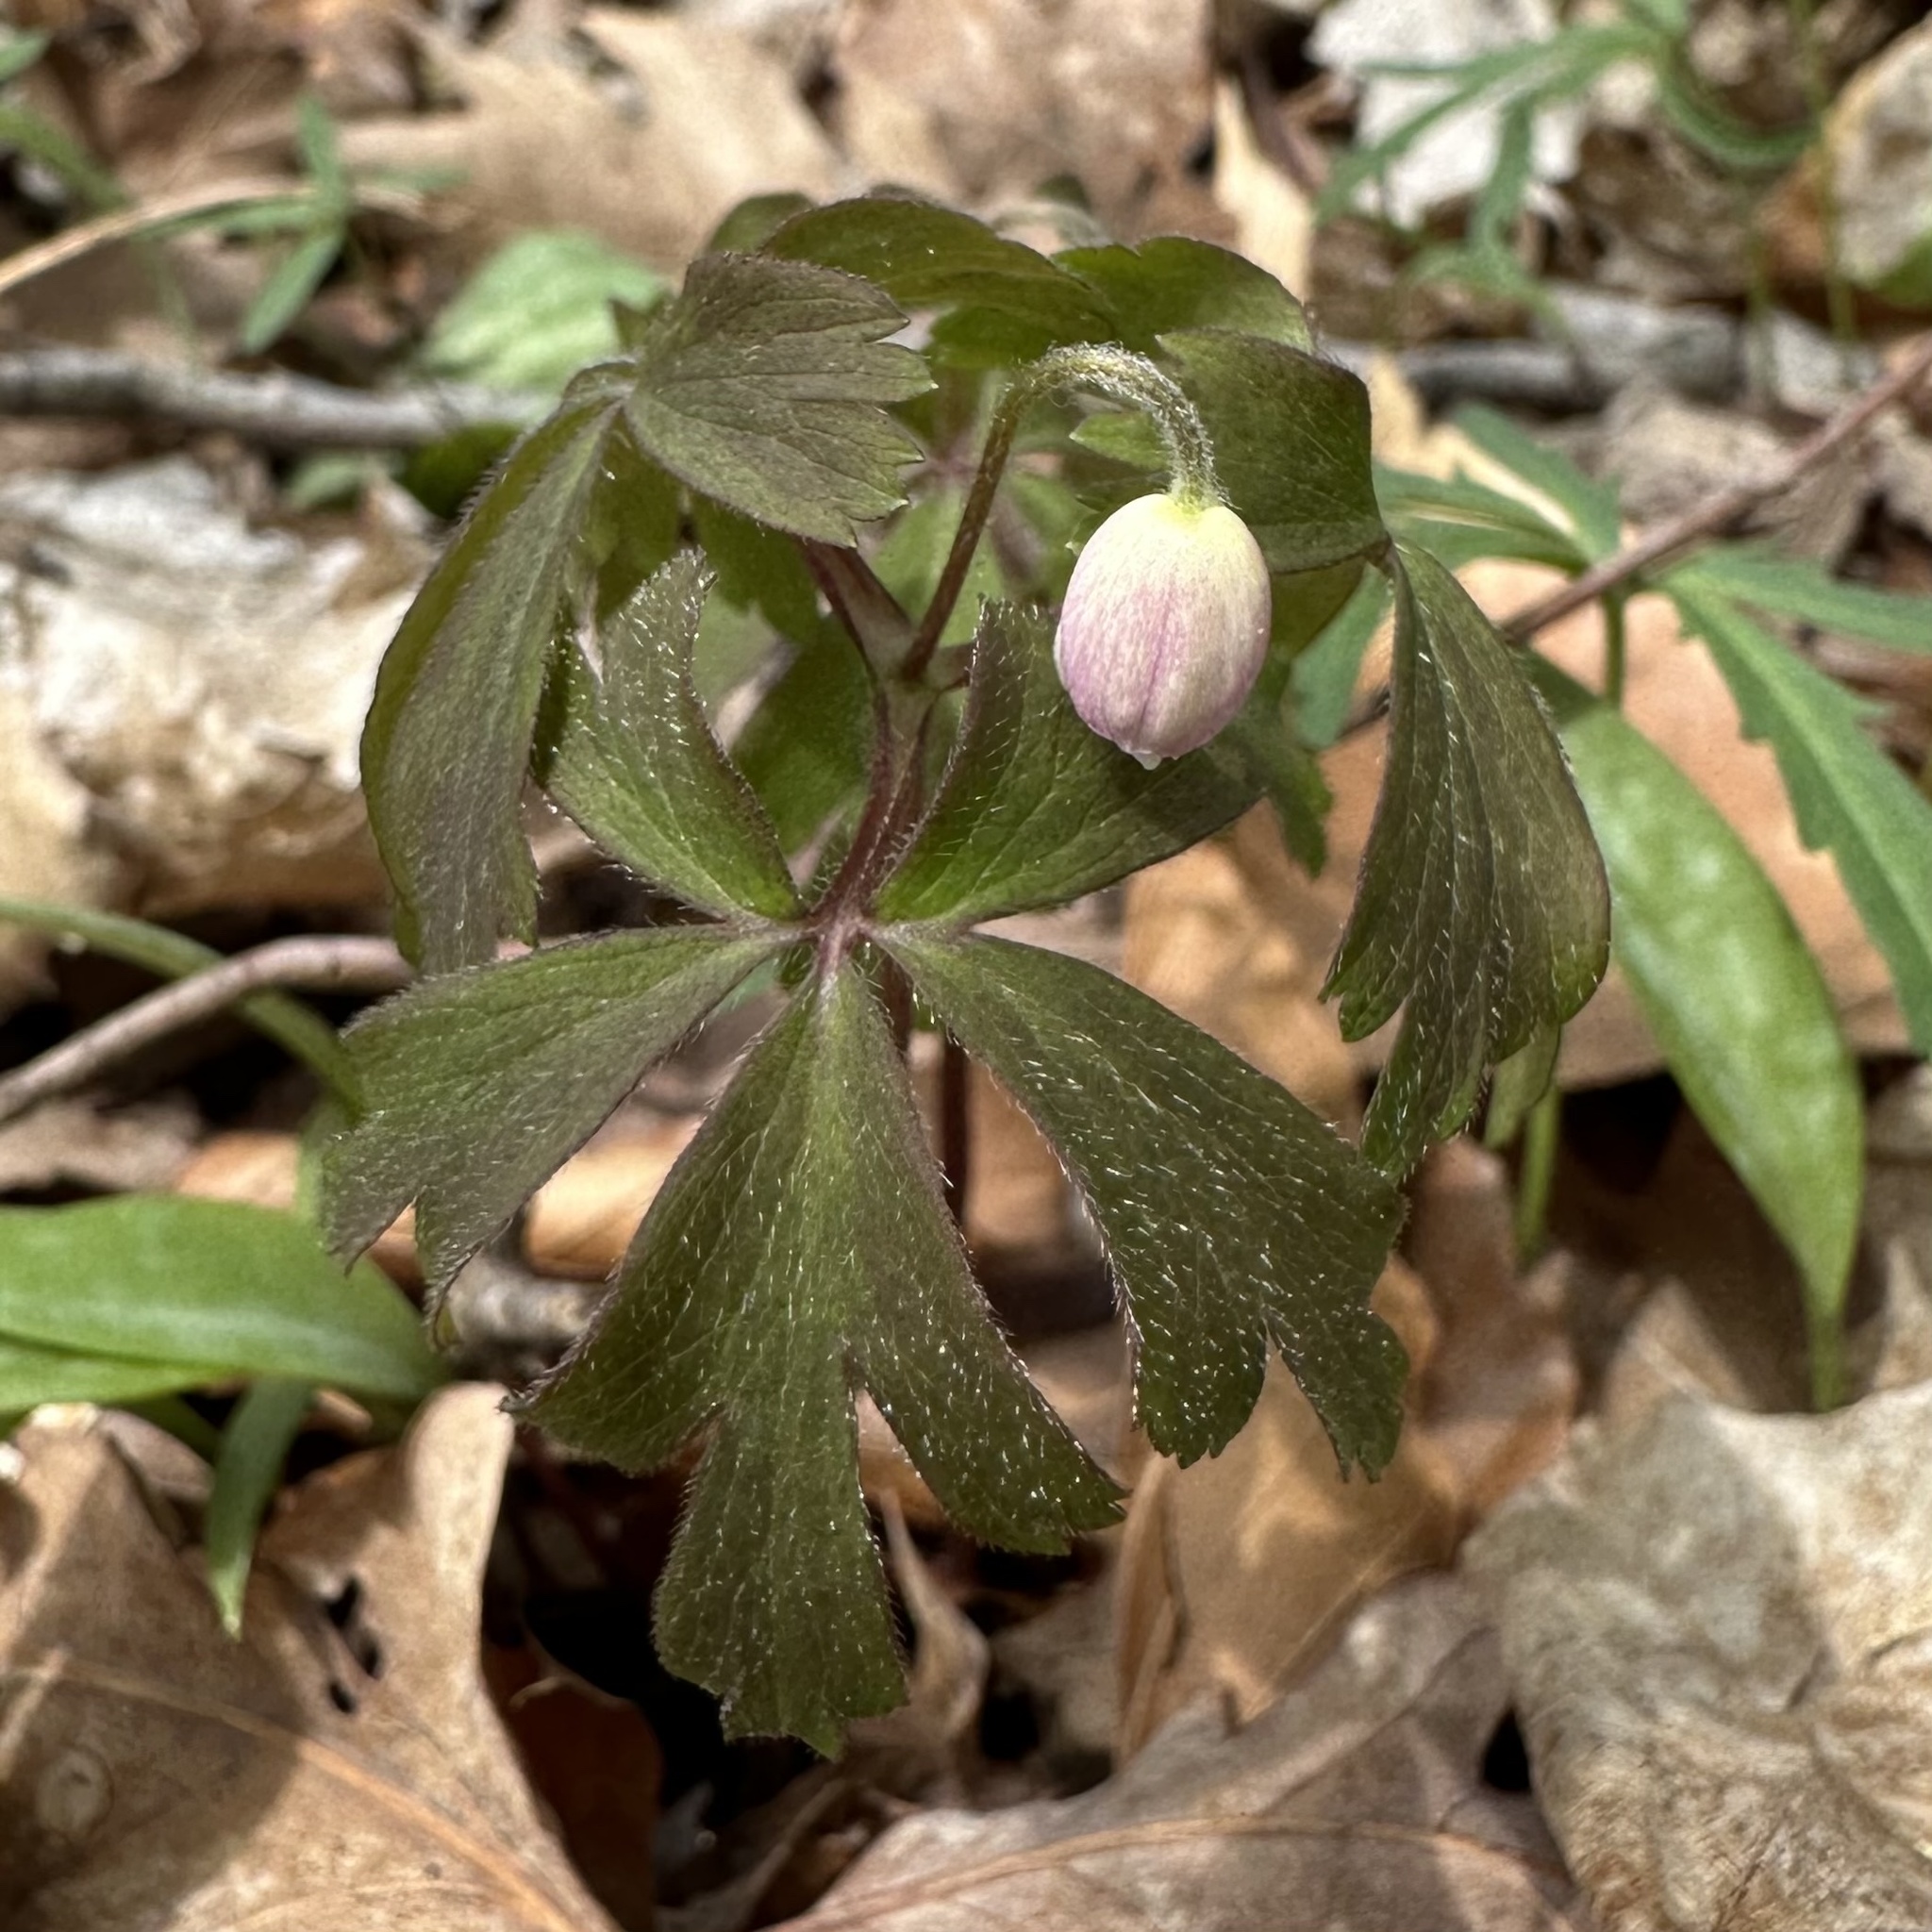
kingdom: Plantae
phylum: Tracheophyta
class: Magnoliopsida
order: Ranunculales
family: Ranunculaceae
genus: Anemone
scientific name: Anemone quinquefolia
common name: Wood anemone
